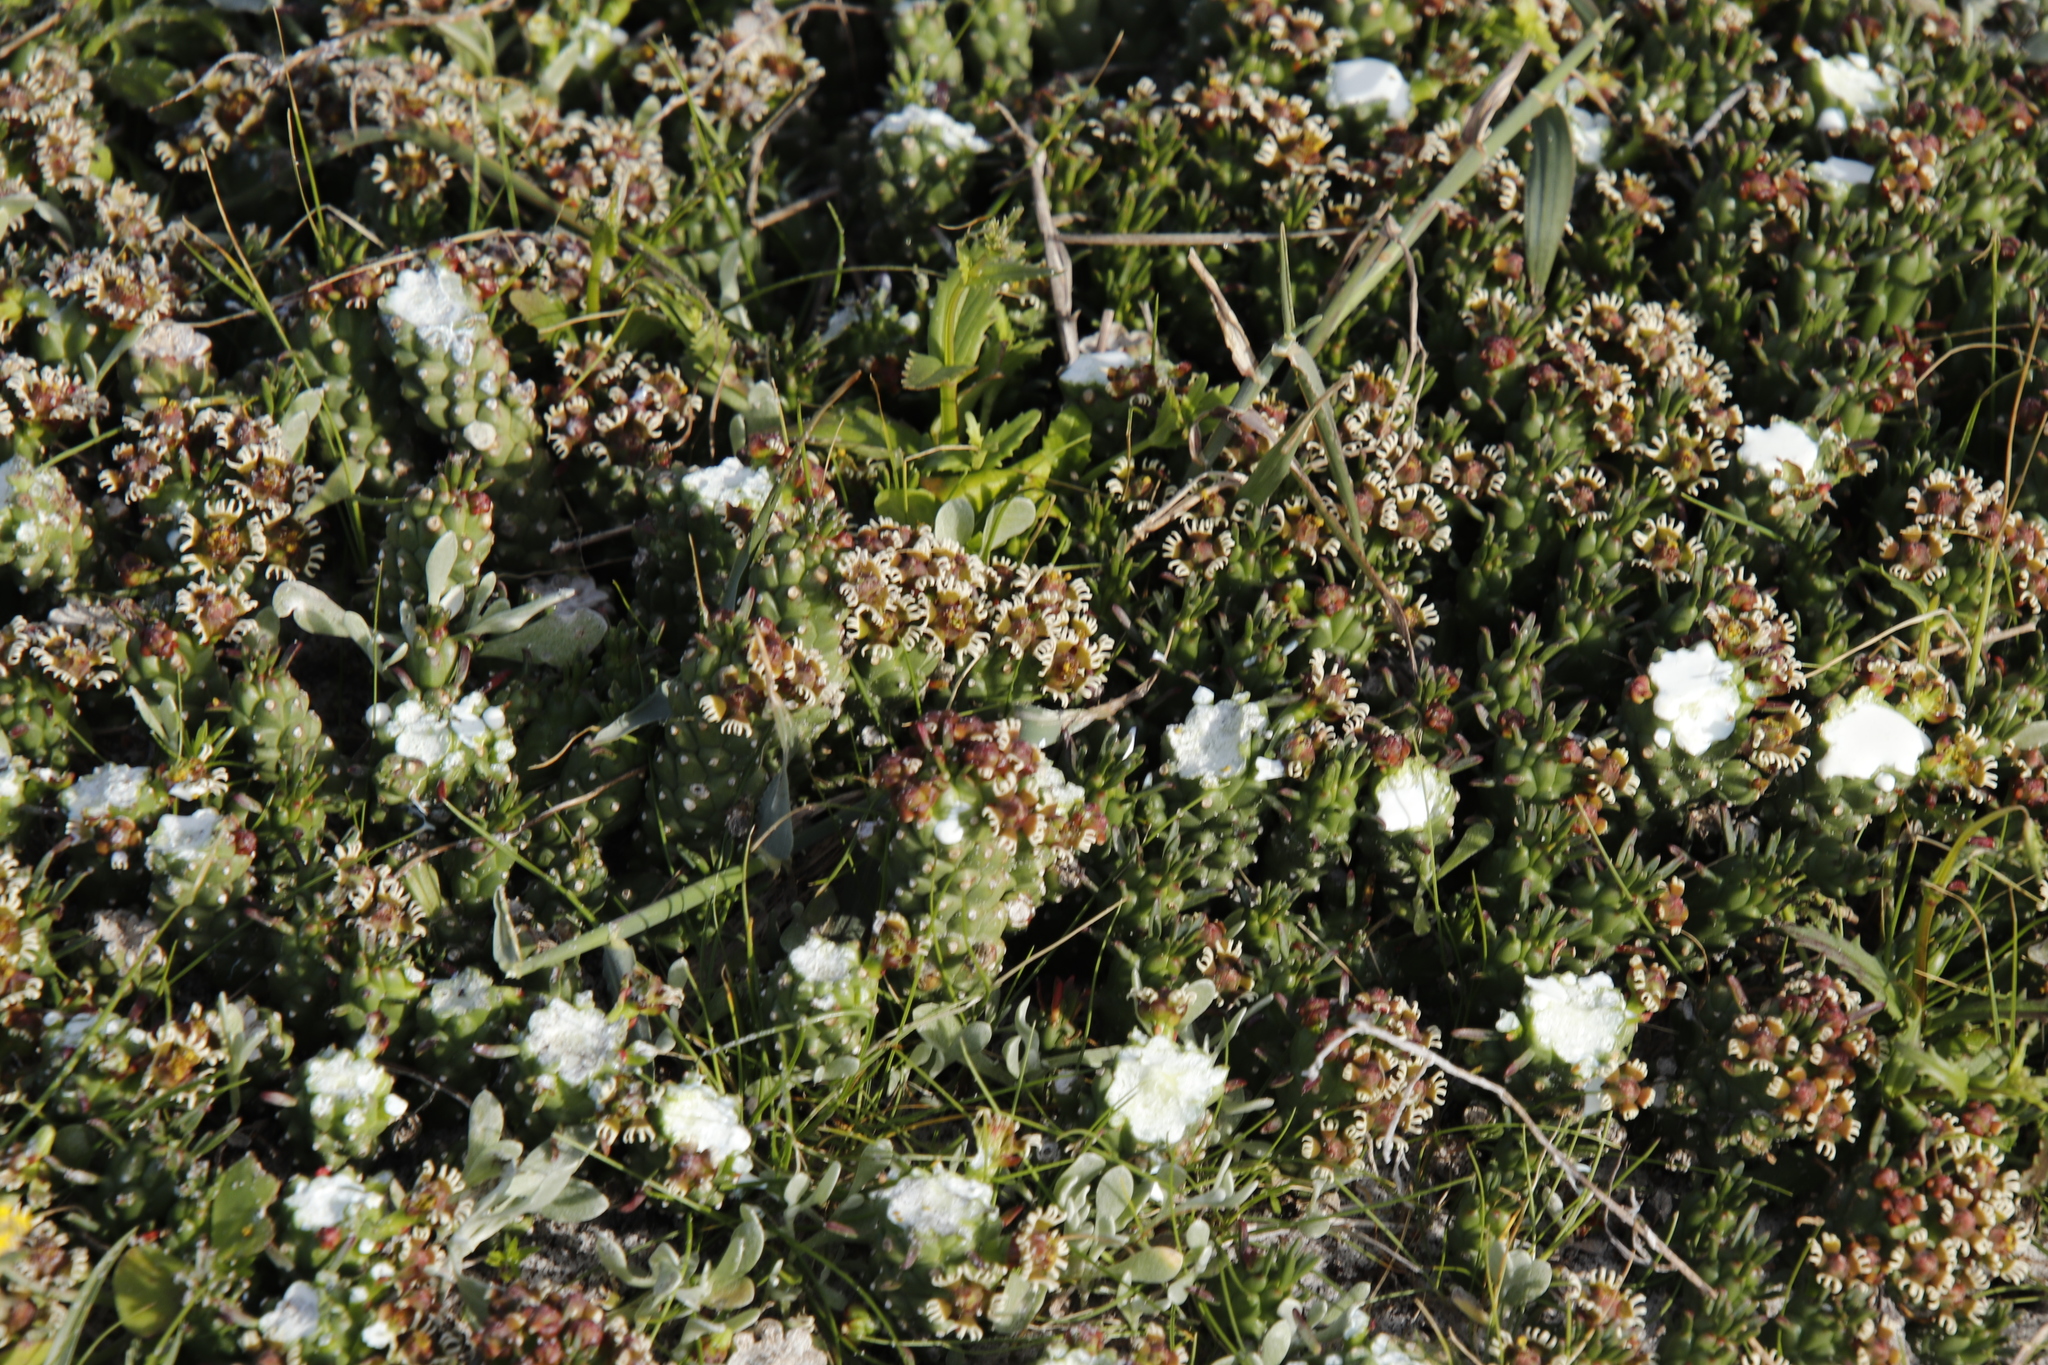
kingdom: Plantae
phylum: Tracheophyta
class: Magnoliopsida
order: Malpighiales
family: Euphorbiaceae
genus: Euphorbia
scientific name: Euphorbia caput-medusae
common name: Medusa's-head
